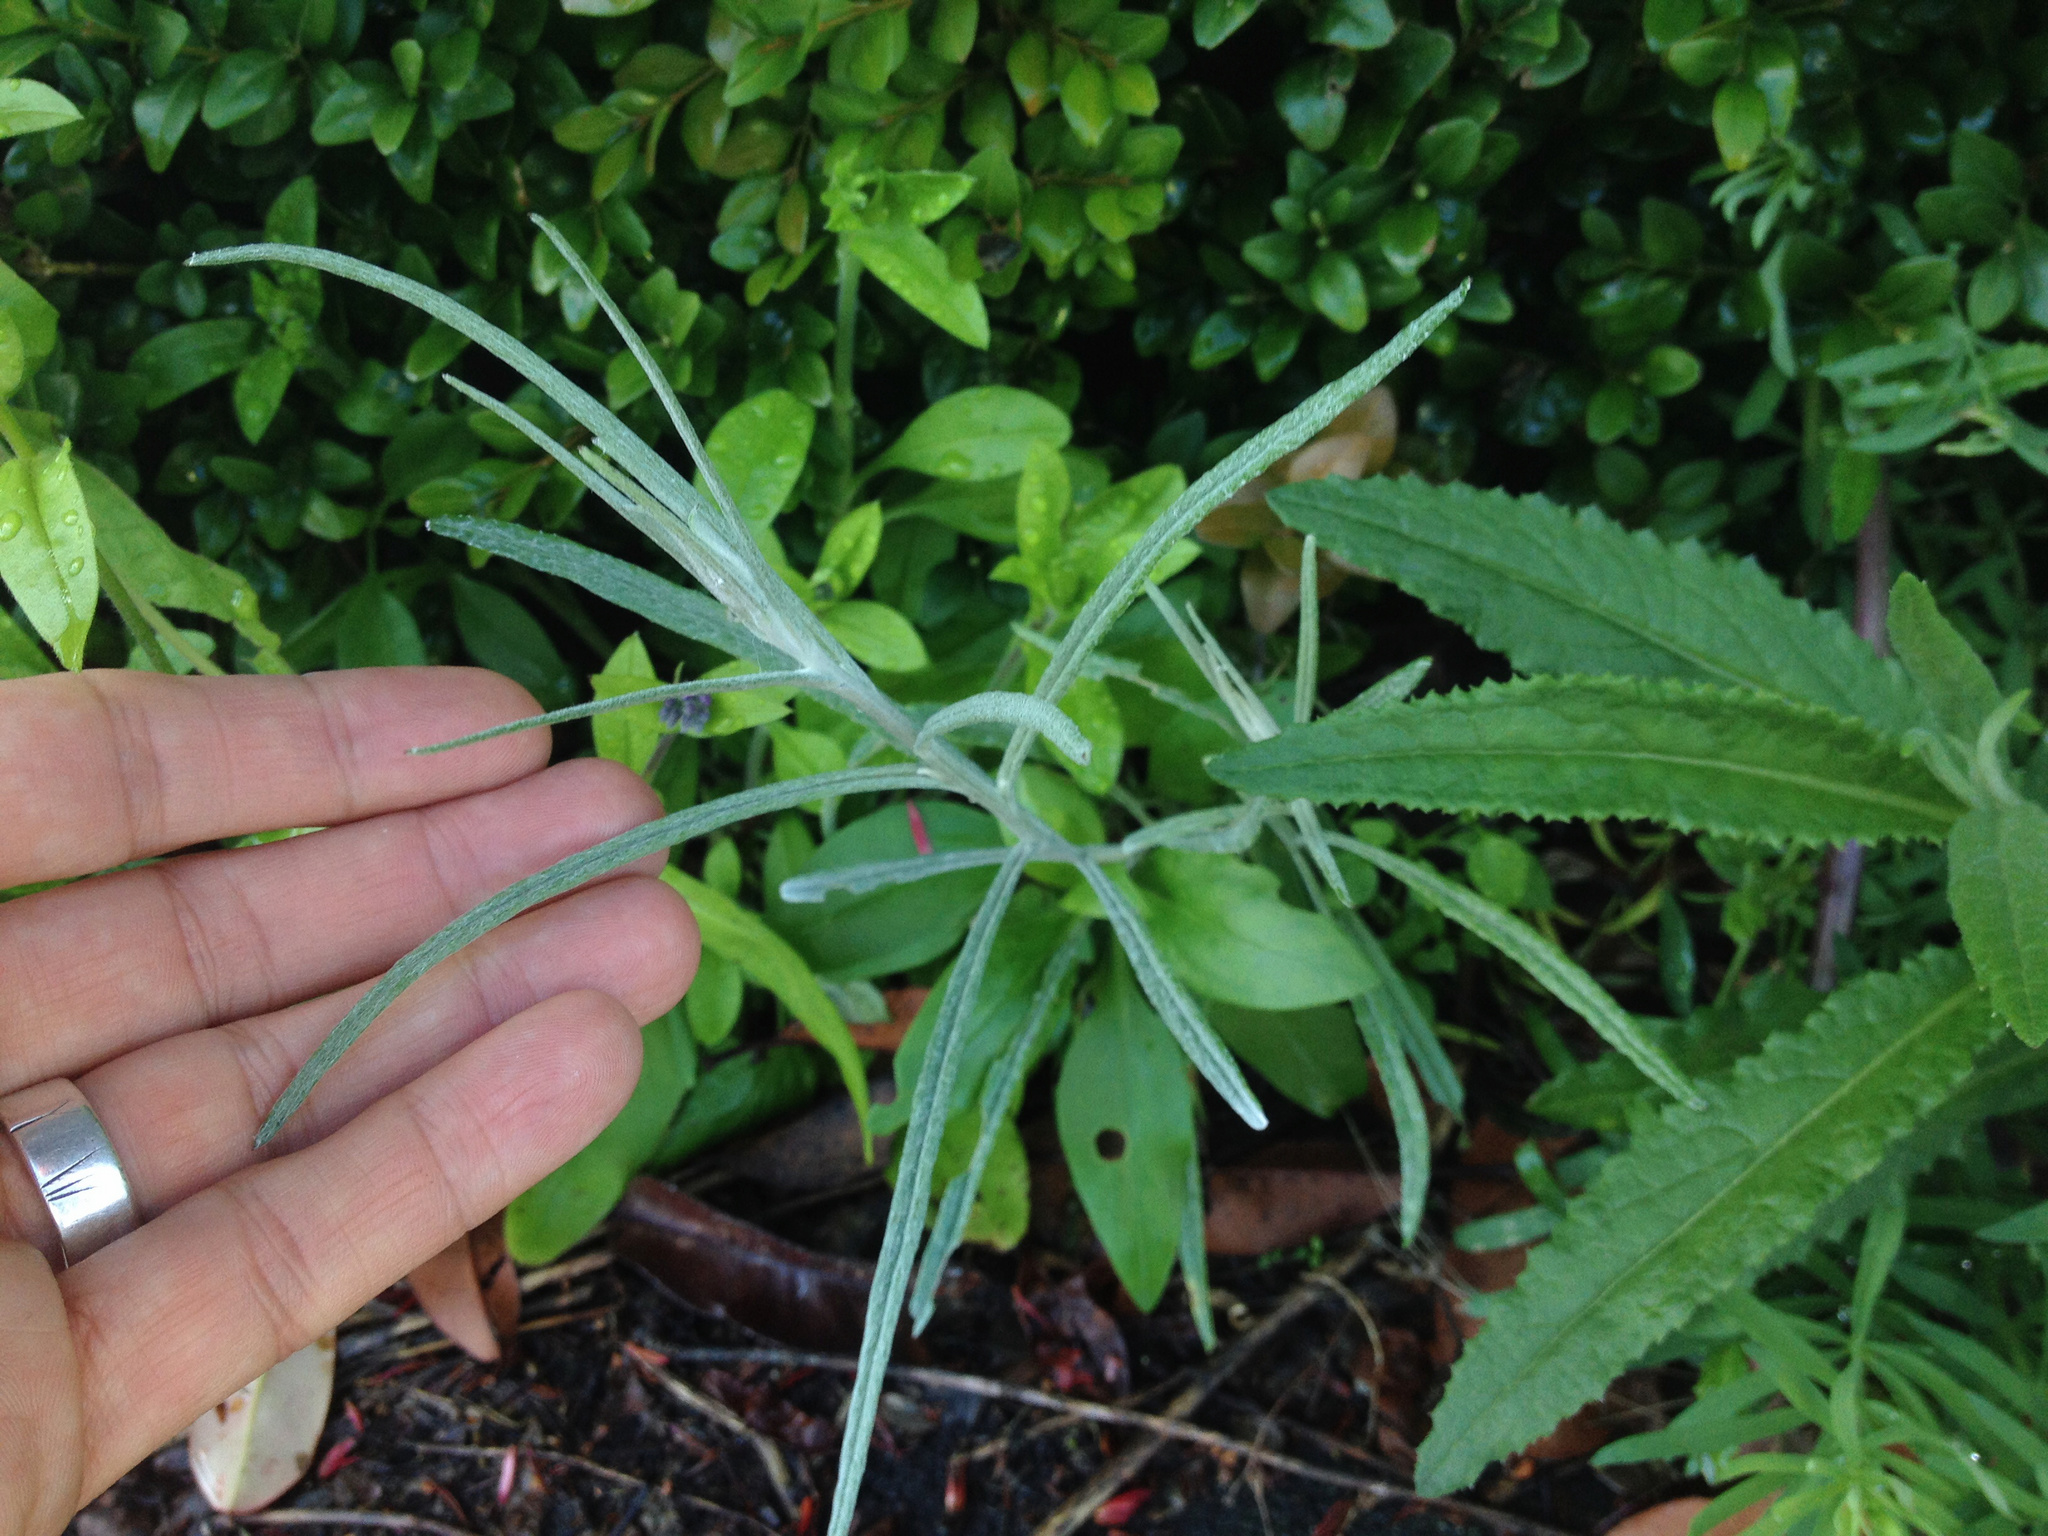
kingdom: Plantae
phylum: Tracheophyta
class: Magnoliopsida
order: Asterales
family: Asteraceae
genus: Senecio
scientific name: Senecio quadridentatus
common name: Cotton fireweed
